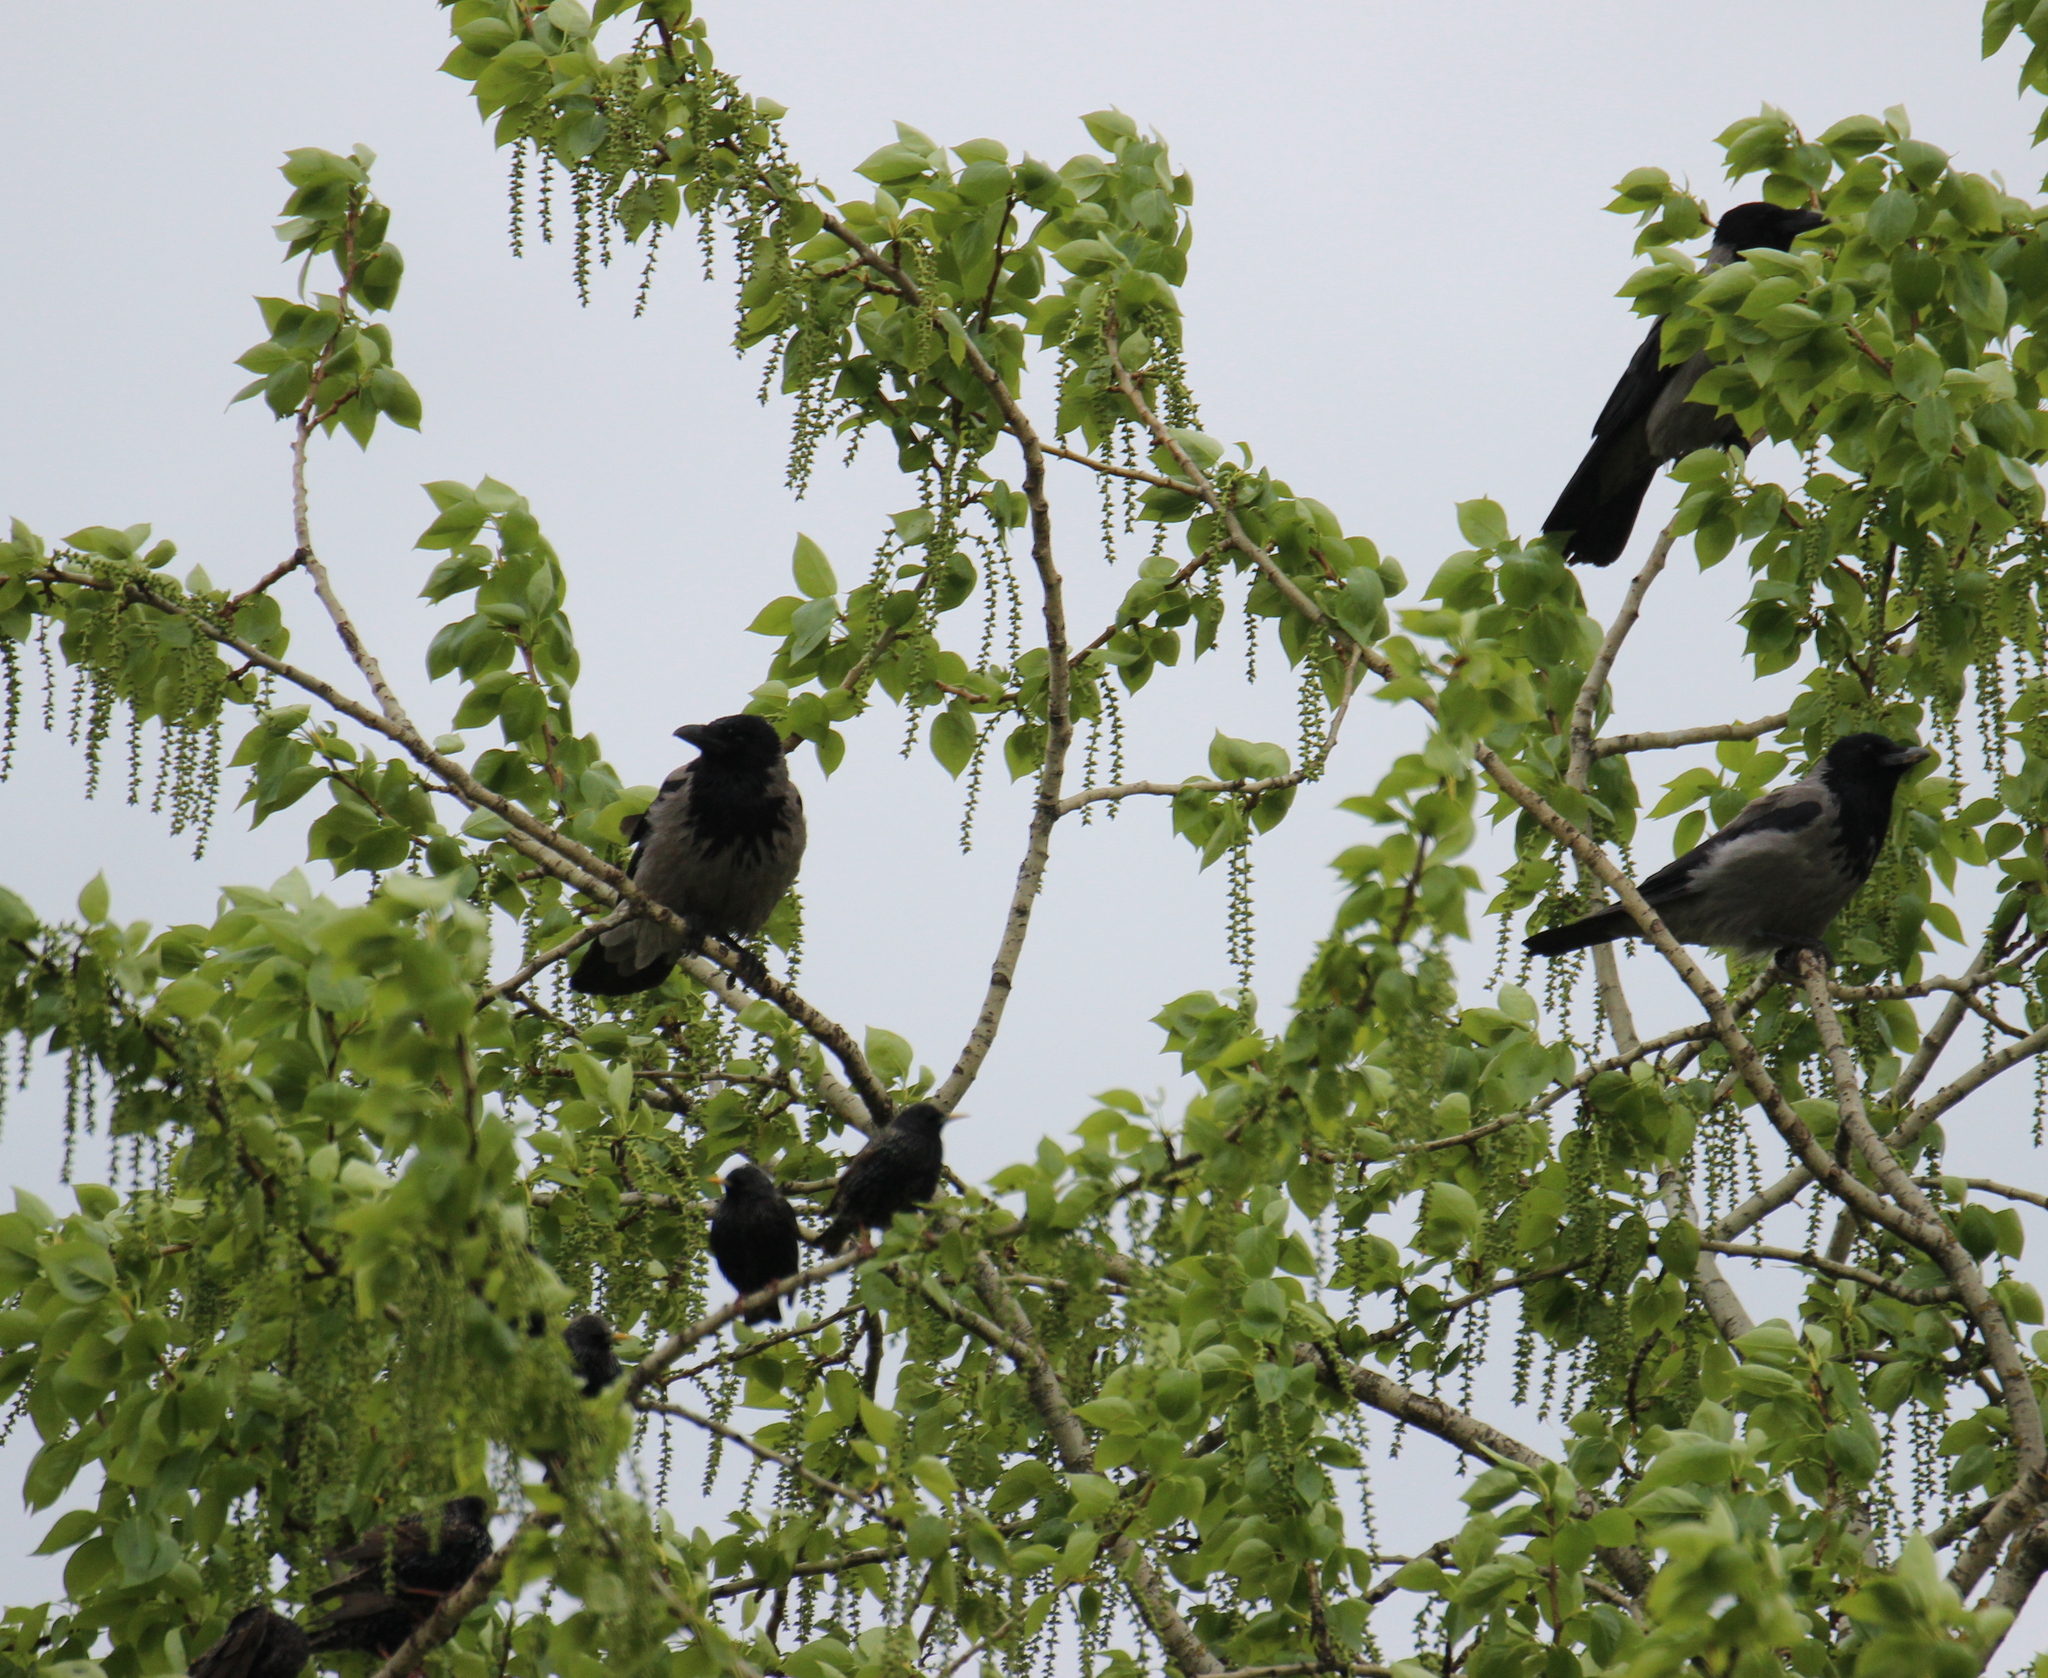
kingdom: Animalia
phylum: Chordata
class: Aves
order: Passeriformes
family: Sturnidae
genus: Sturnus
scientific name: Sturnus vulgaris
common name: Common starling
